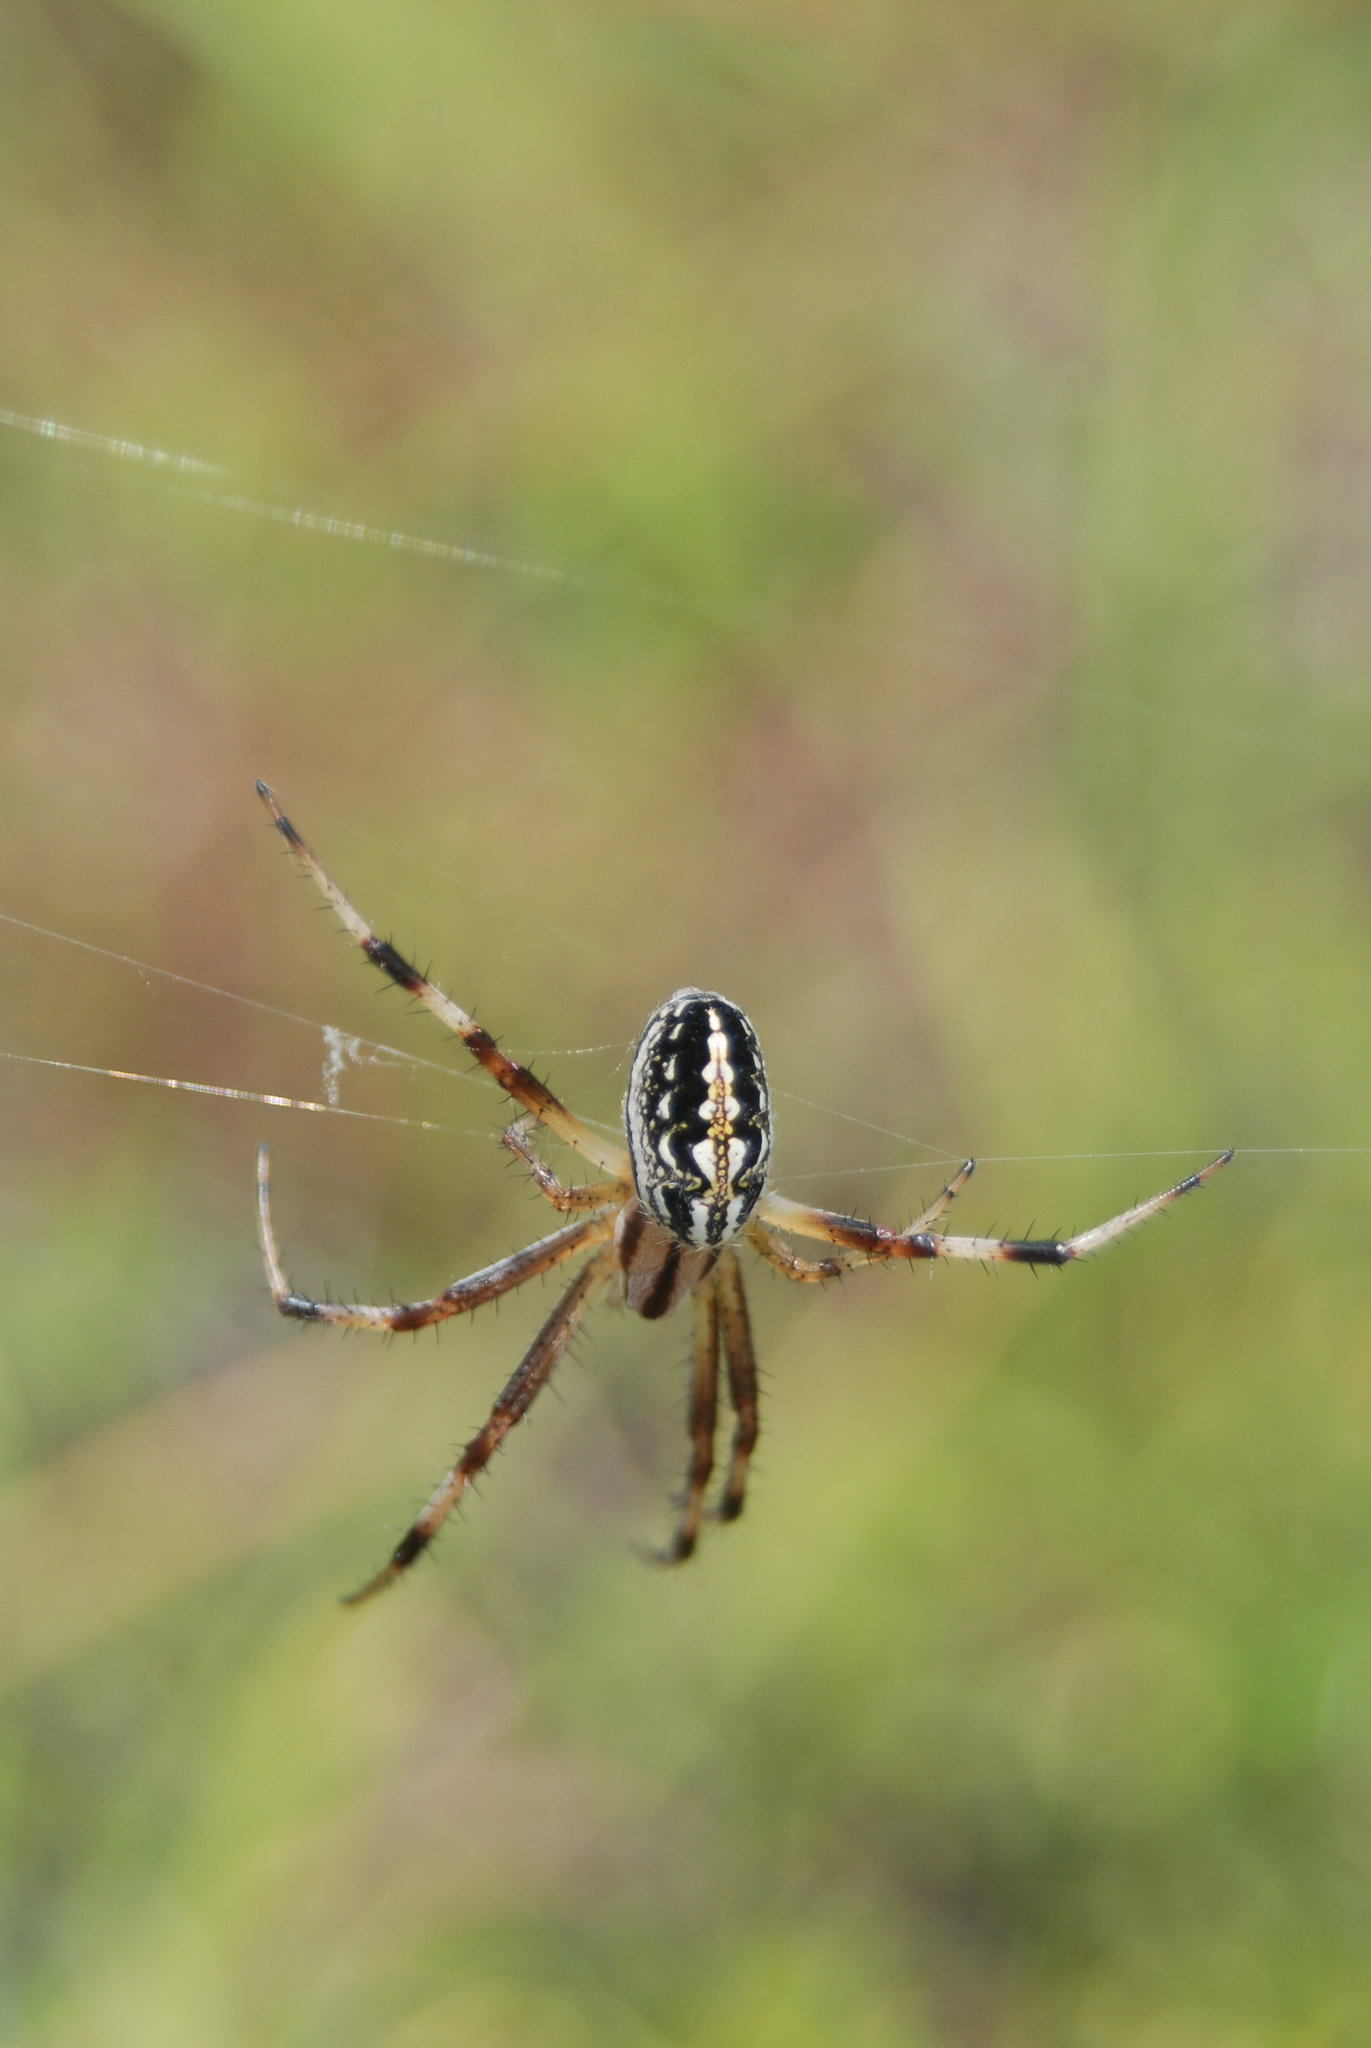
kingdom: Animalia
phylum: Arthropoda
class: Arachnida
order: Araneae
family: Araneidae
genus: Neoscona
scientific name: Neoscona oaxacensis
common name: Orb weavers
